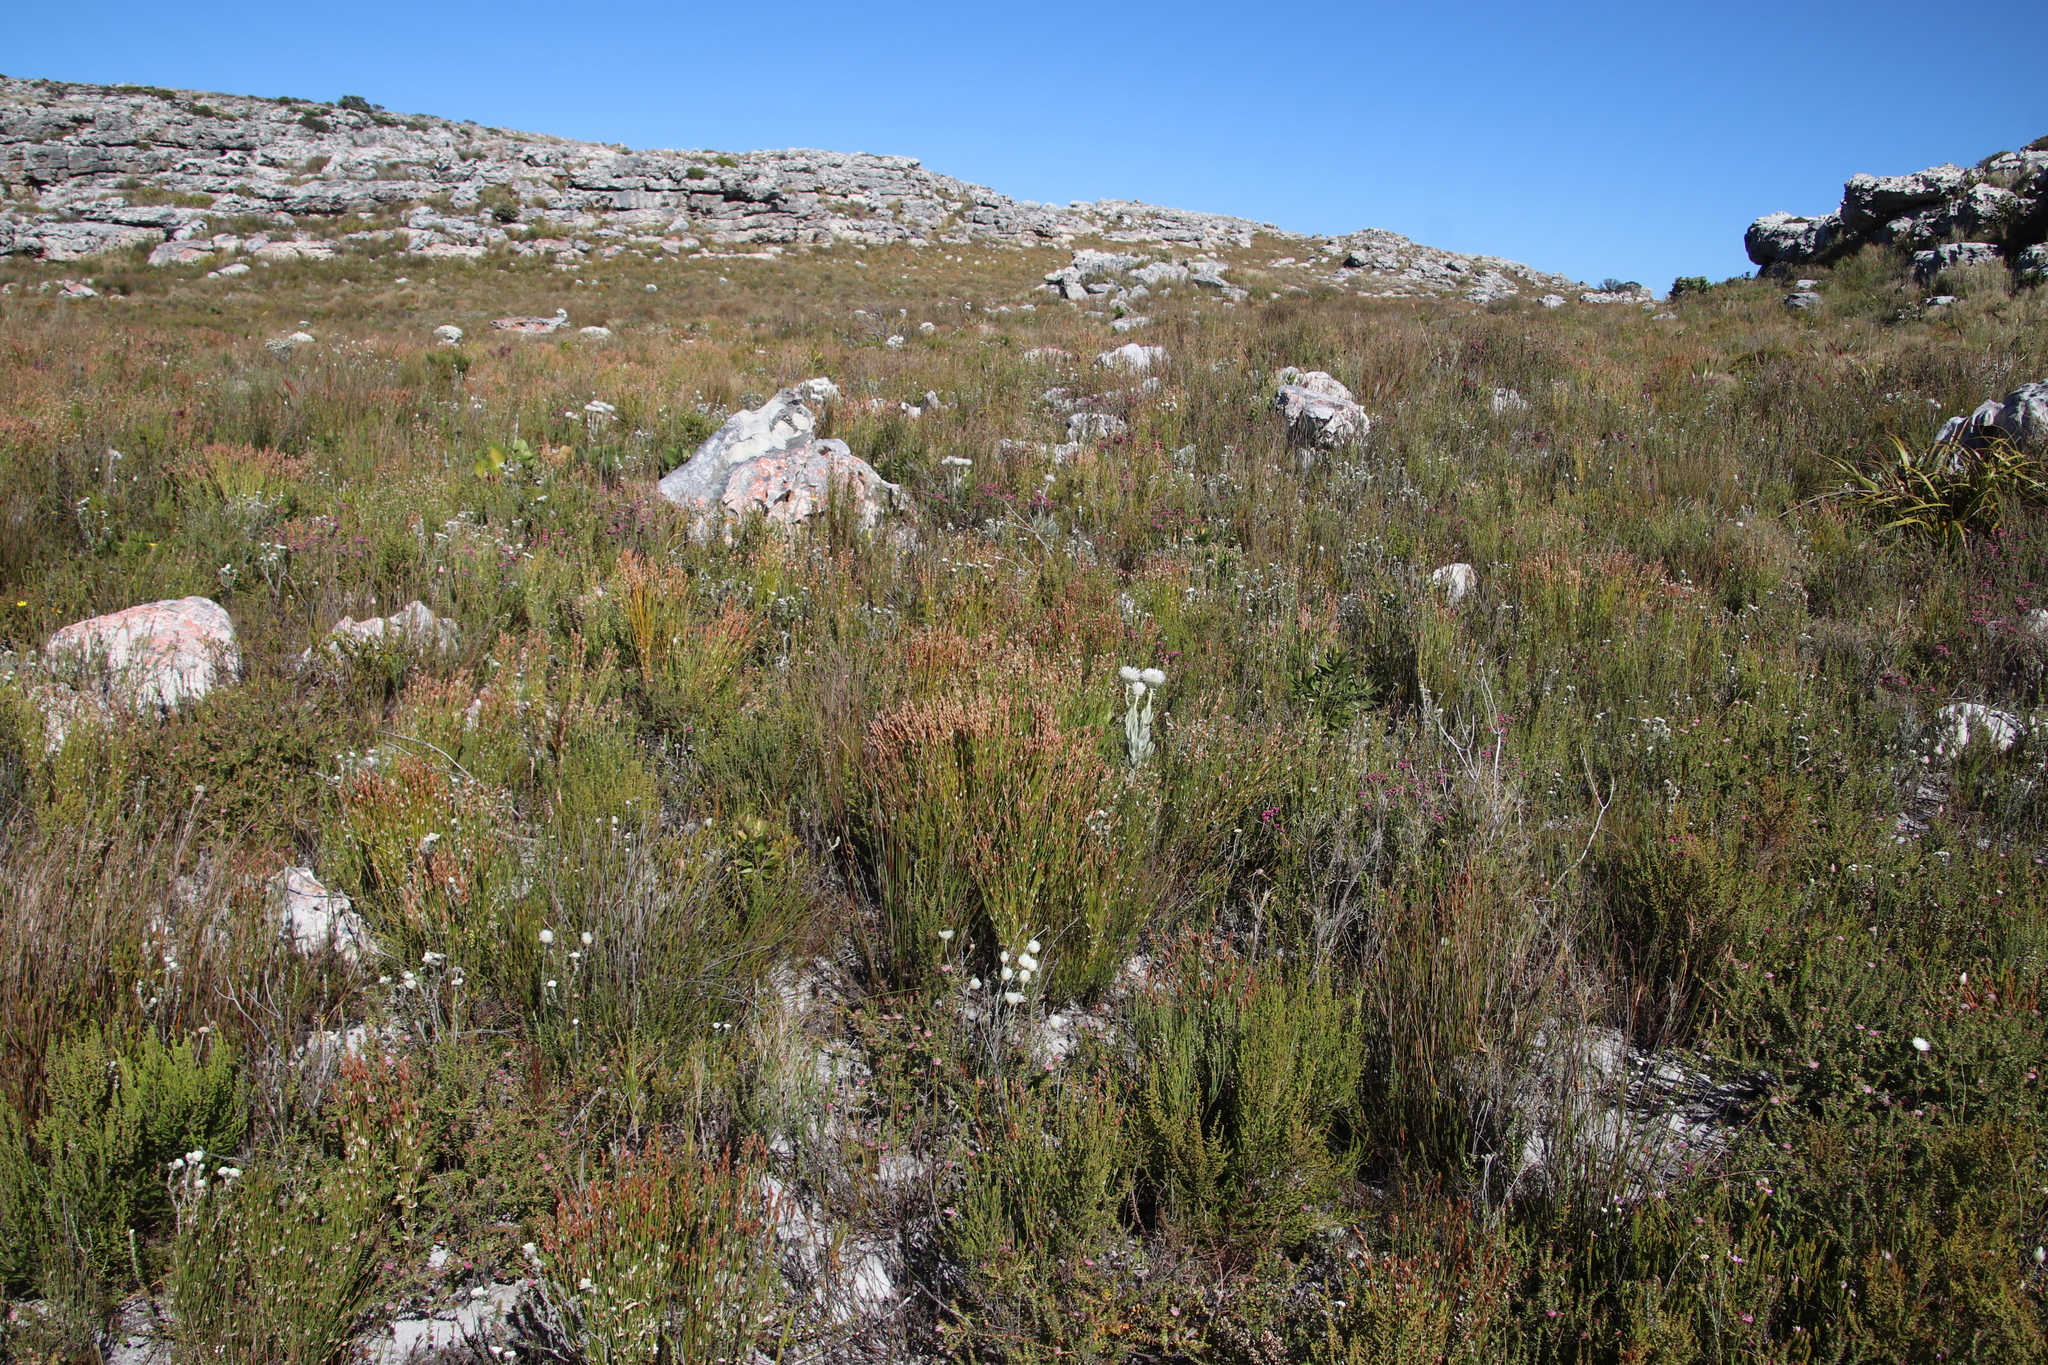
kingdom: Plantae
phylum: Tracheophyta
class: Liliopsida
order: Poales
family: Restionaceae
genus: Elegia
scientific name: Elegia stipularis
